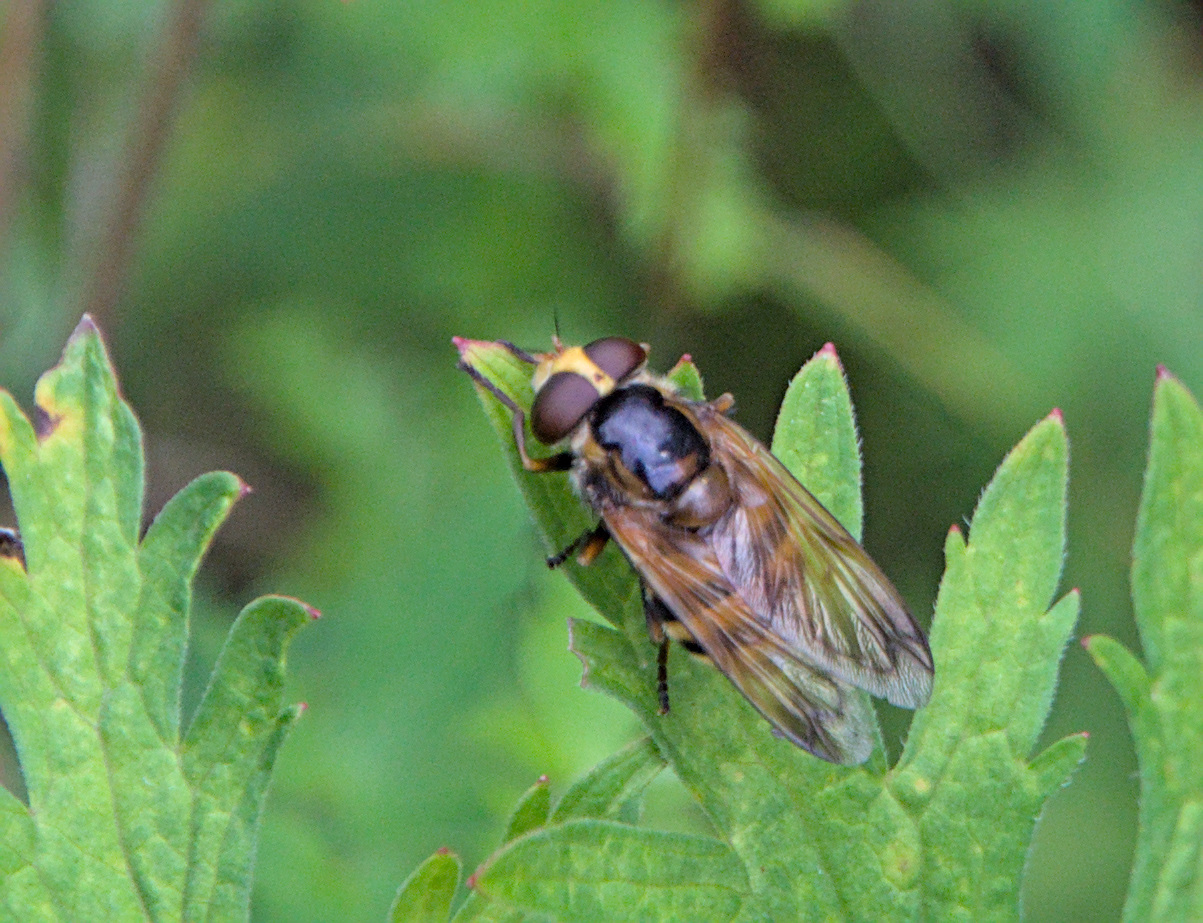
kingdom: Animalia
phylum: Arthropoda
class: Insecta
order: Diptera
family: Syrphidae
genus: Volucella
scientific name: Volucella inanis
